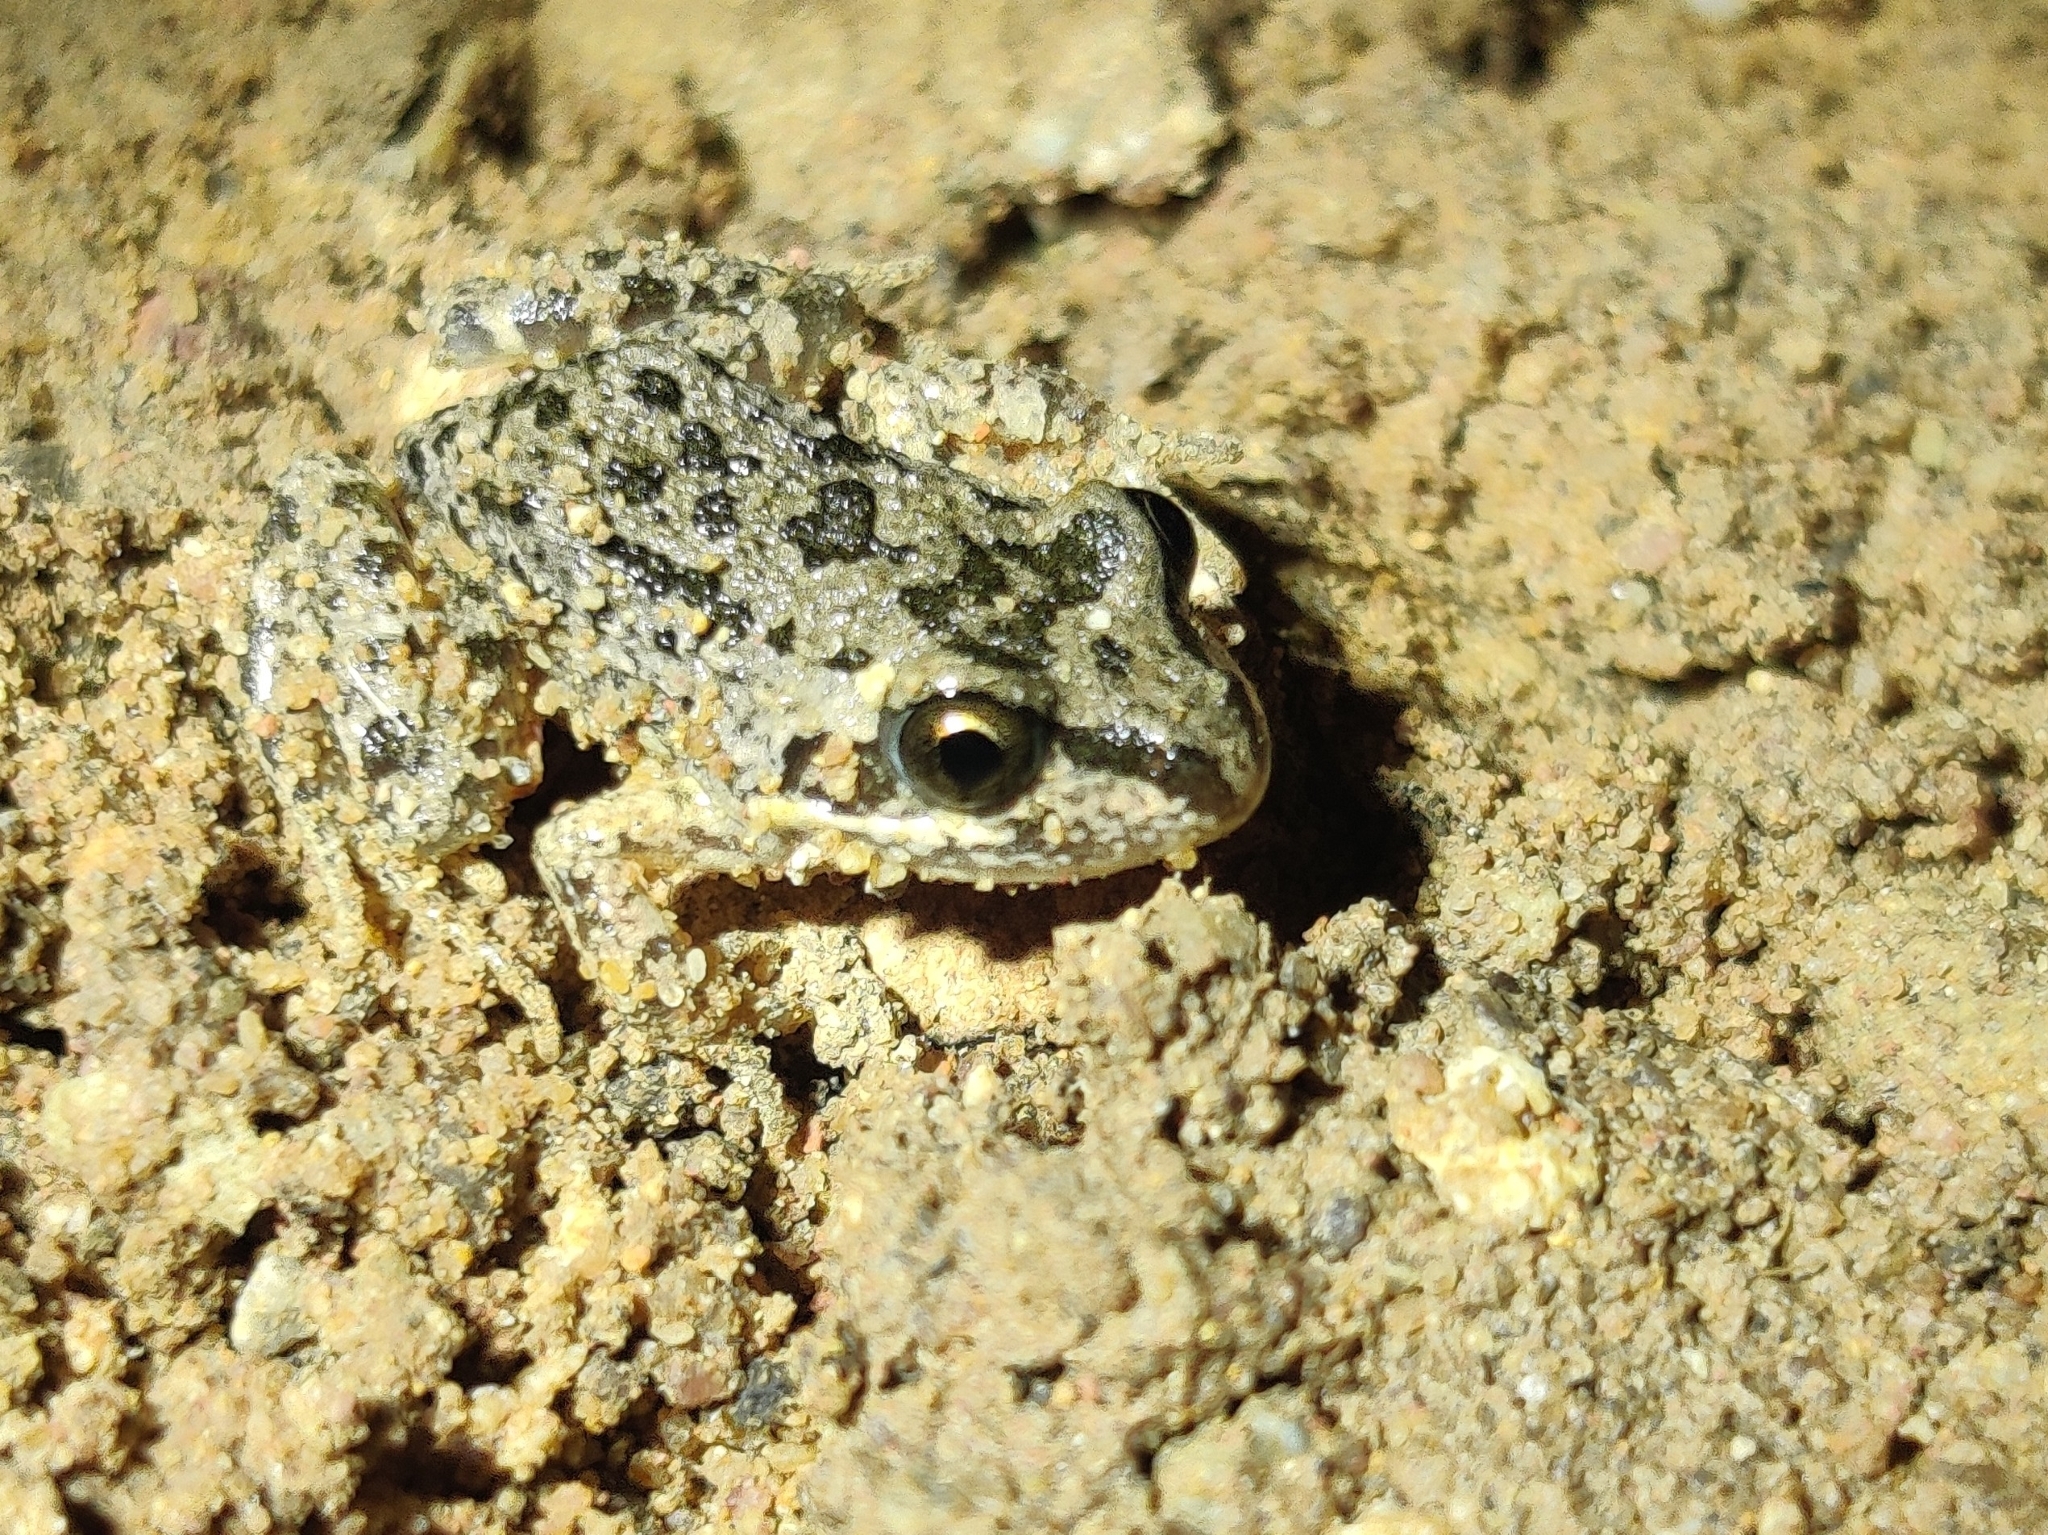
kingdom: Animalia
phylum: Chordata
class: Amphibia
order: Anura
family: Limnodynastidae
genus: Limnodynastes
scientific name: Limnodynastes tasmaniensis
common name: Spotted marsh frog
